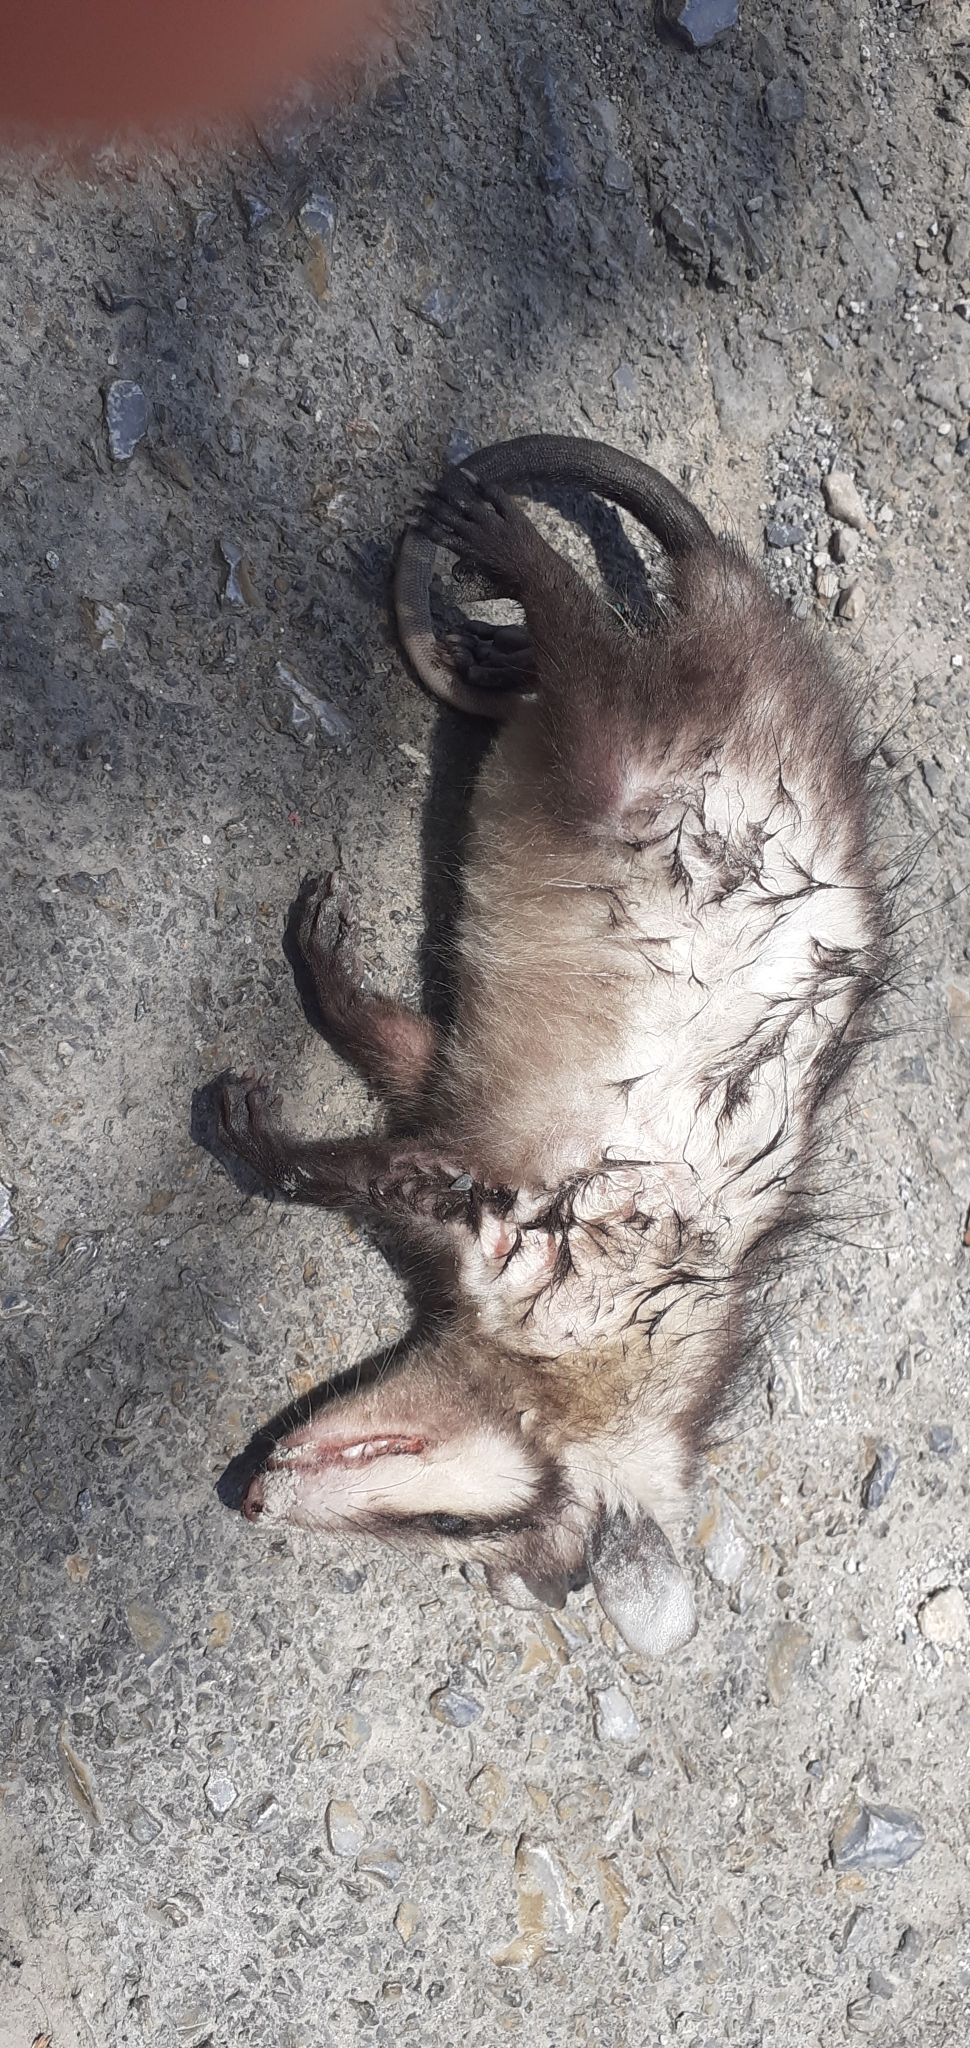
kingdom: Animalia
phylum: Chordata
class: Mammalia
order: Didelphimorphia
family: Didelphidae
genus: Didelphis
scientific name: Didelphis virginiana
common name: Virginia opossum
